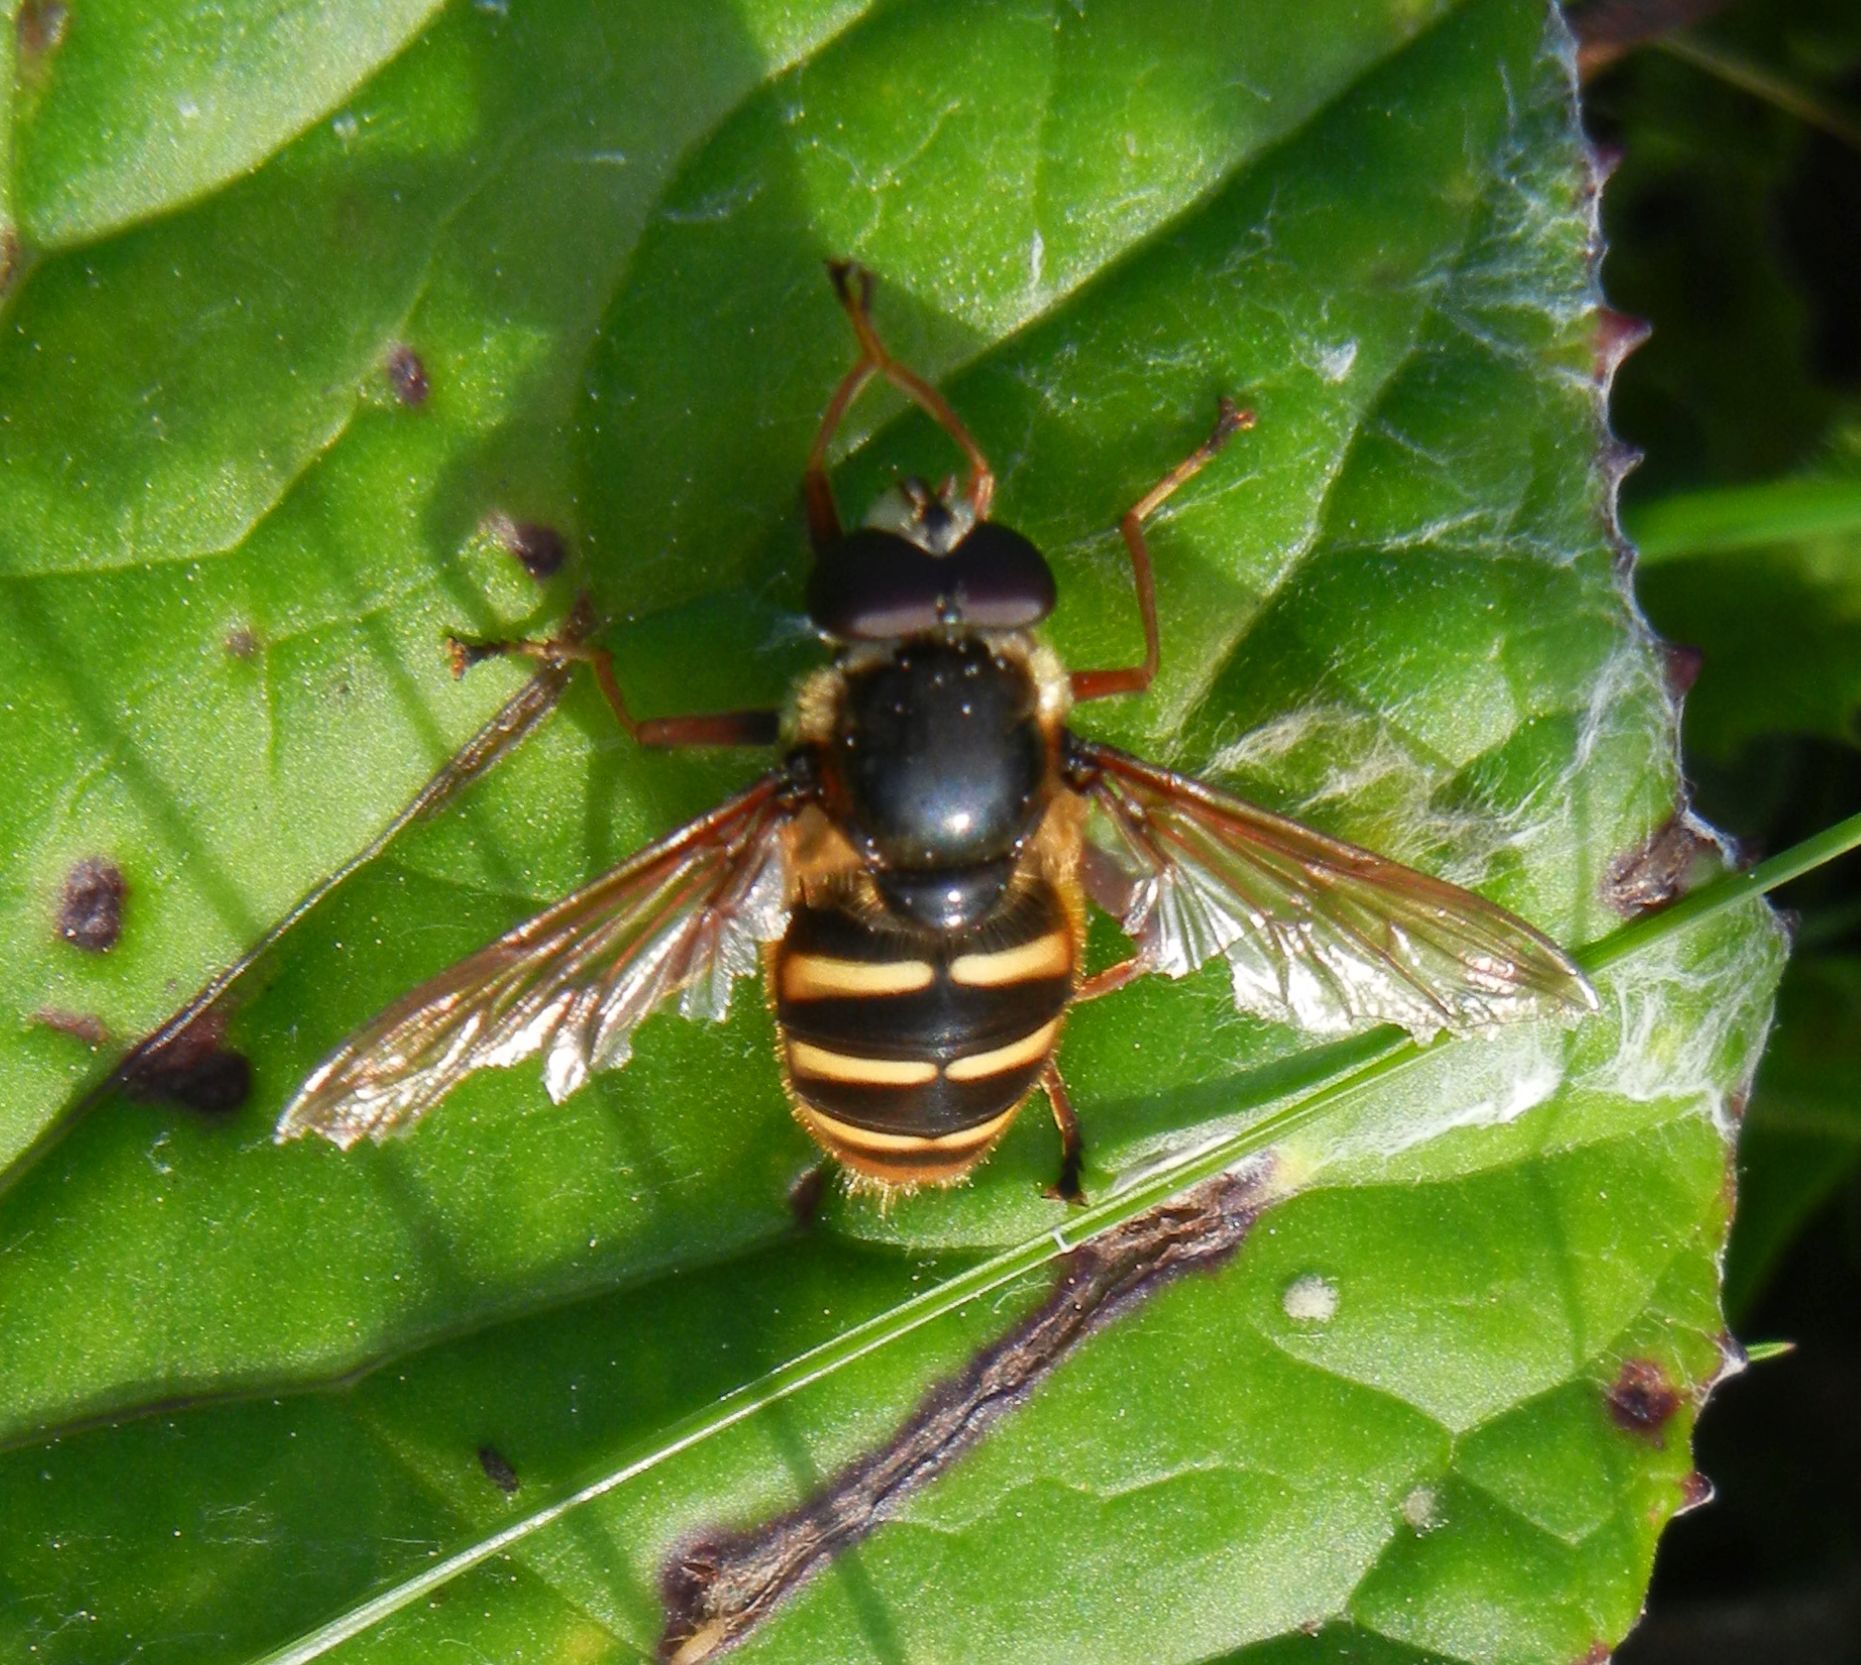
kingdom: Animalia
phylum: Arthropoda
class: Insecta
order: Diptera
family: Syrphidae
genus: Sericomyia
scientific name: Sericomyia silentis
